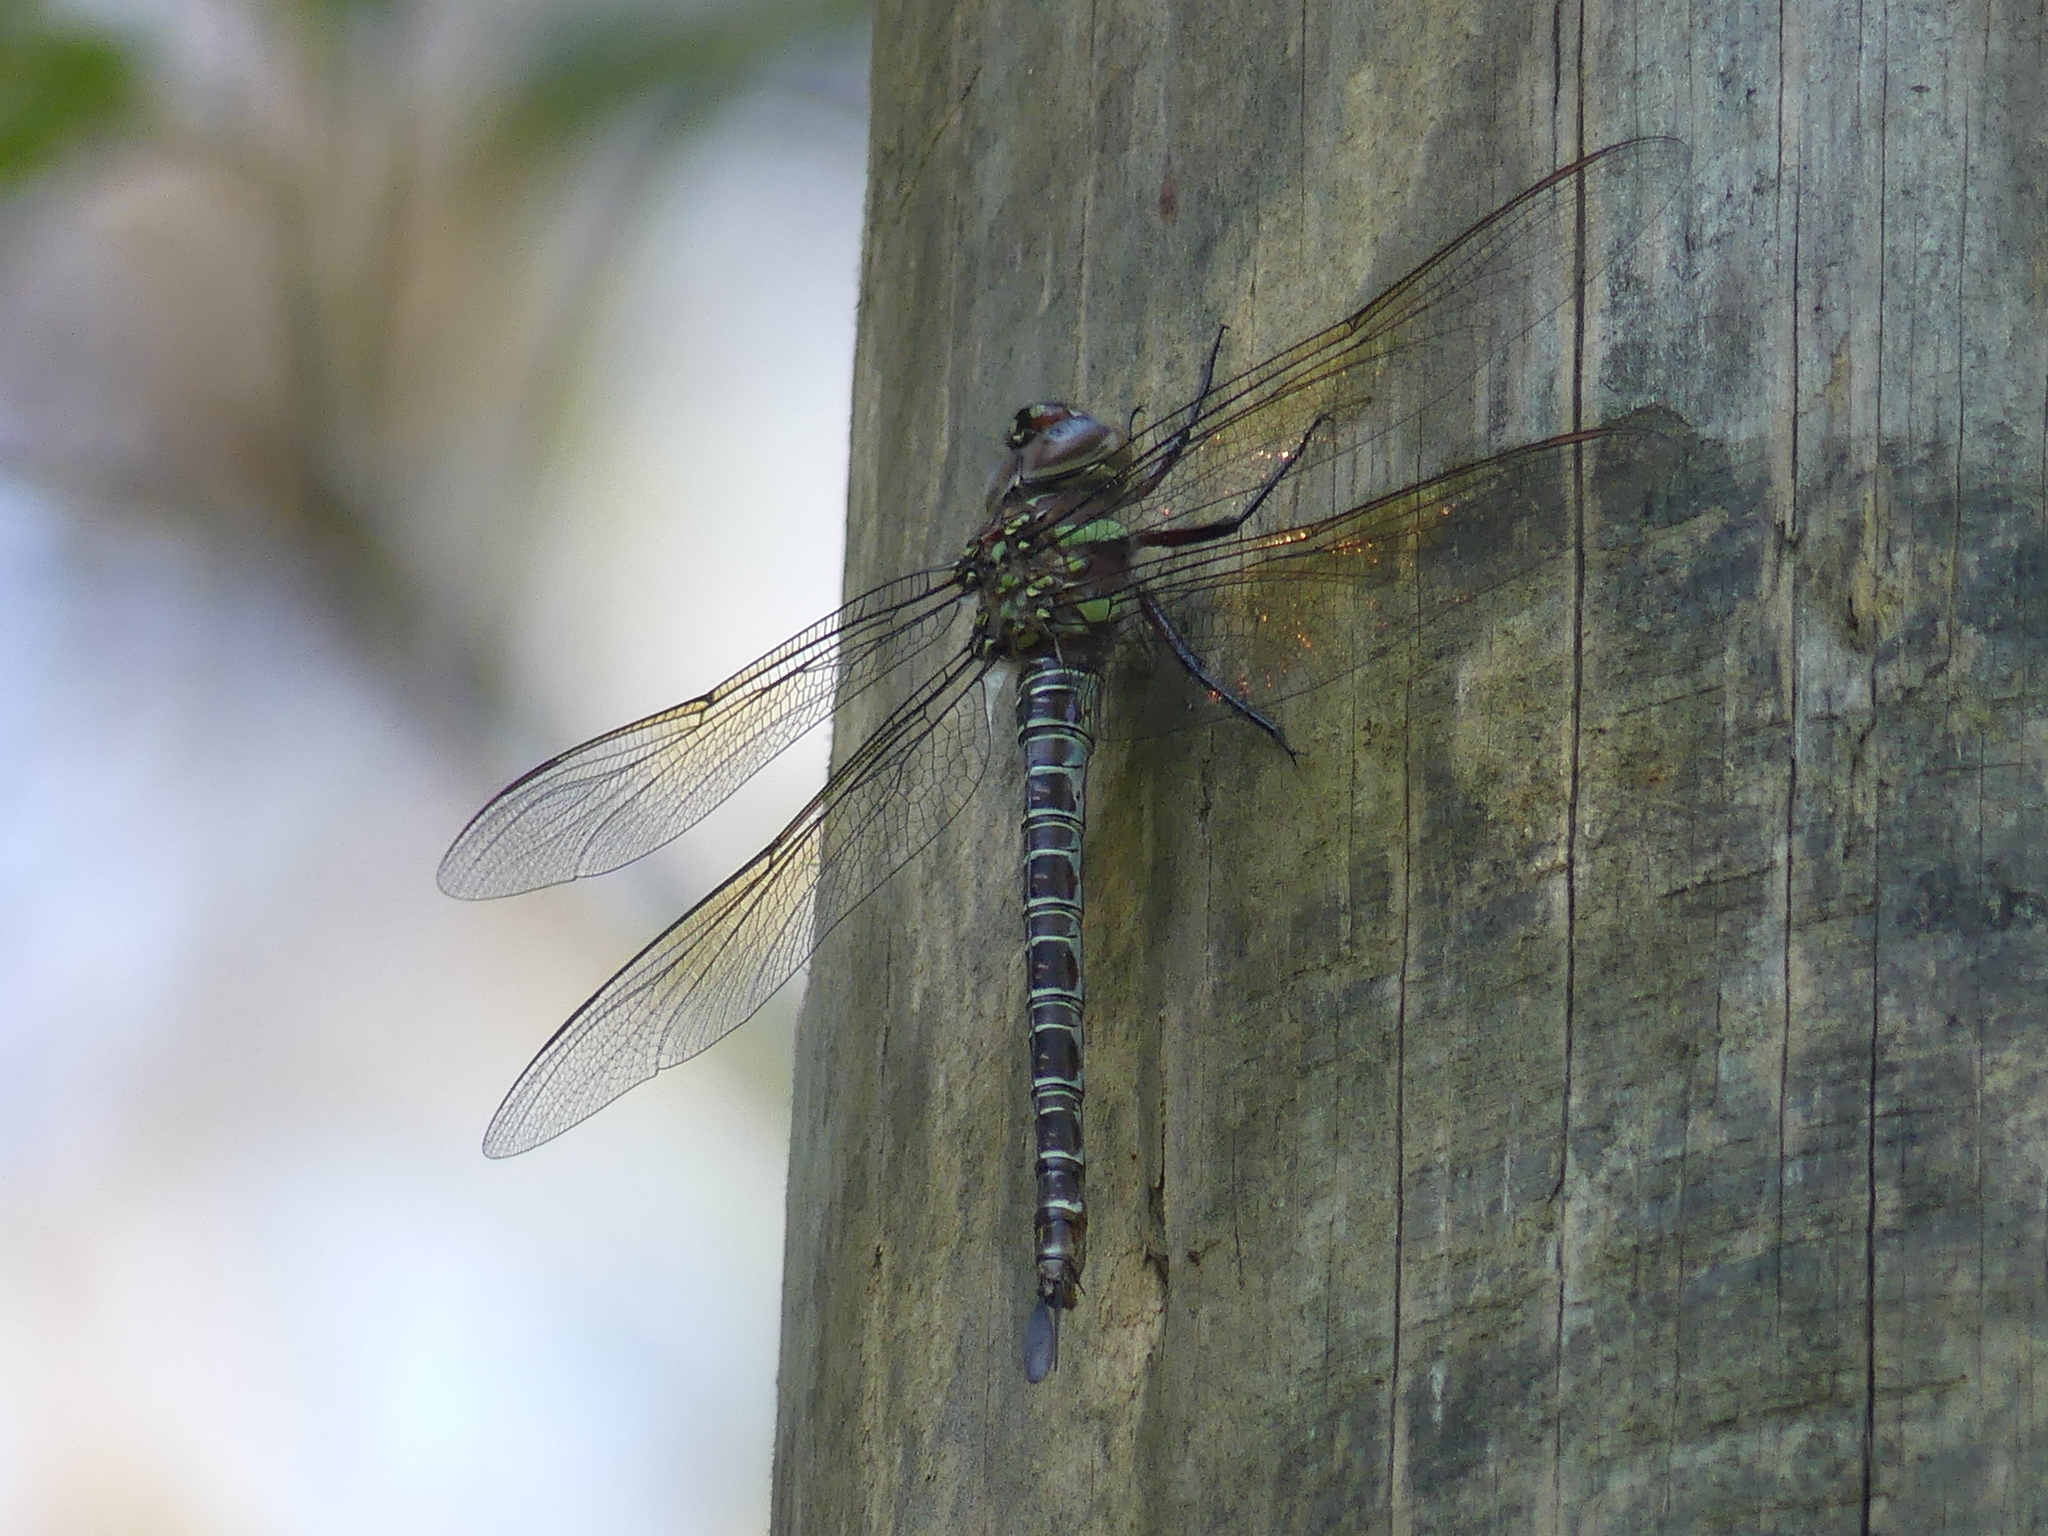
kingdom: Animalia
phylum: Arthropoda
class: Insecta
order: Odonata
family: Aeshnidae
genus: Epiaeschna
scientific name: Epiaeschna heros
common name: Swamp darner
